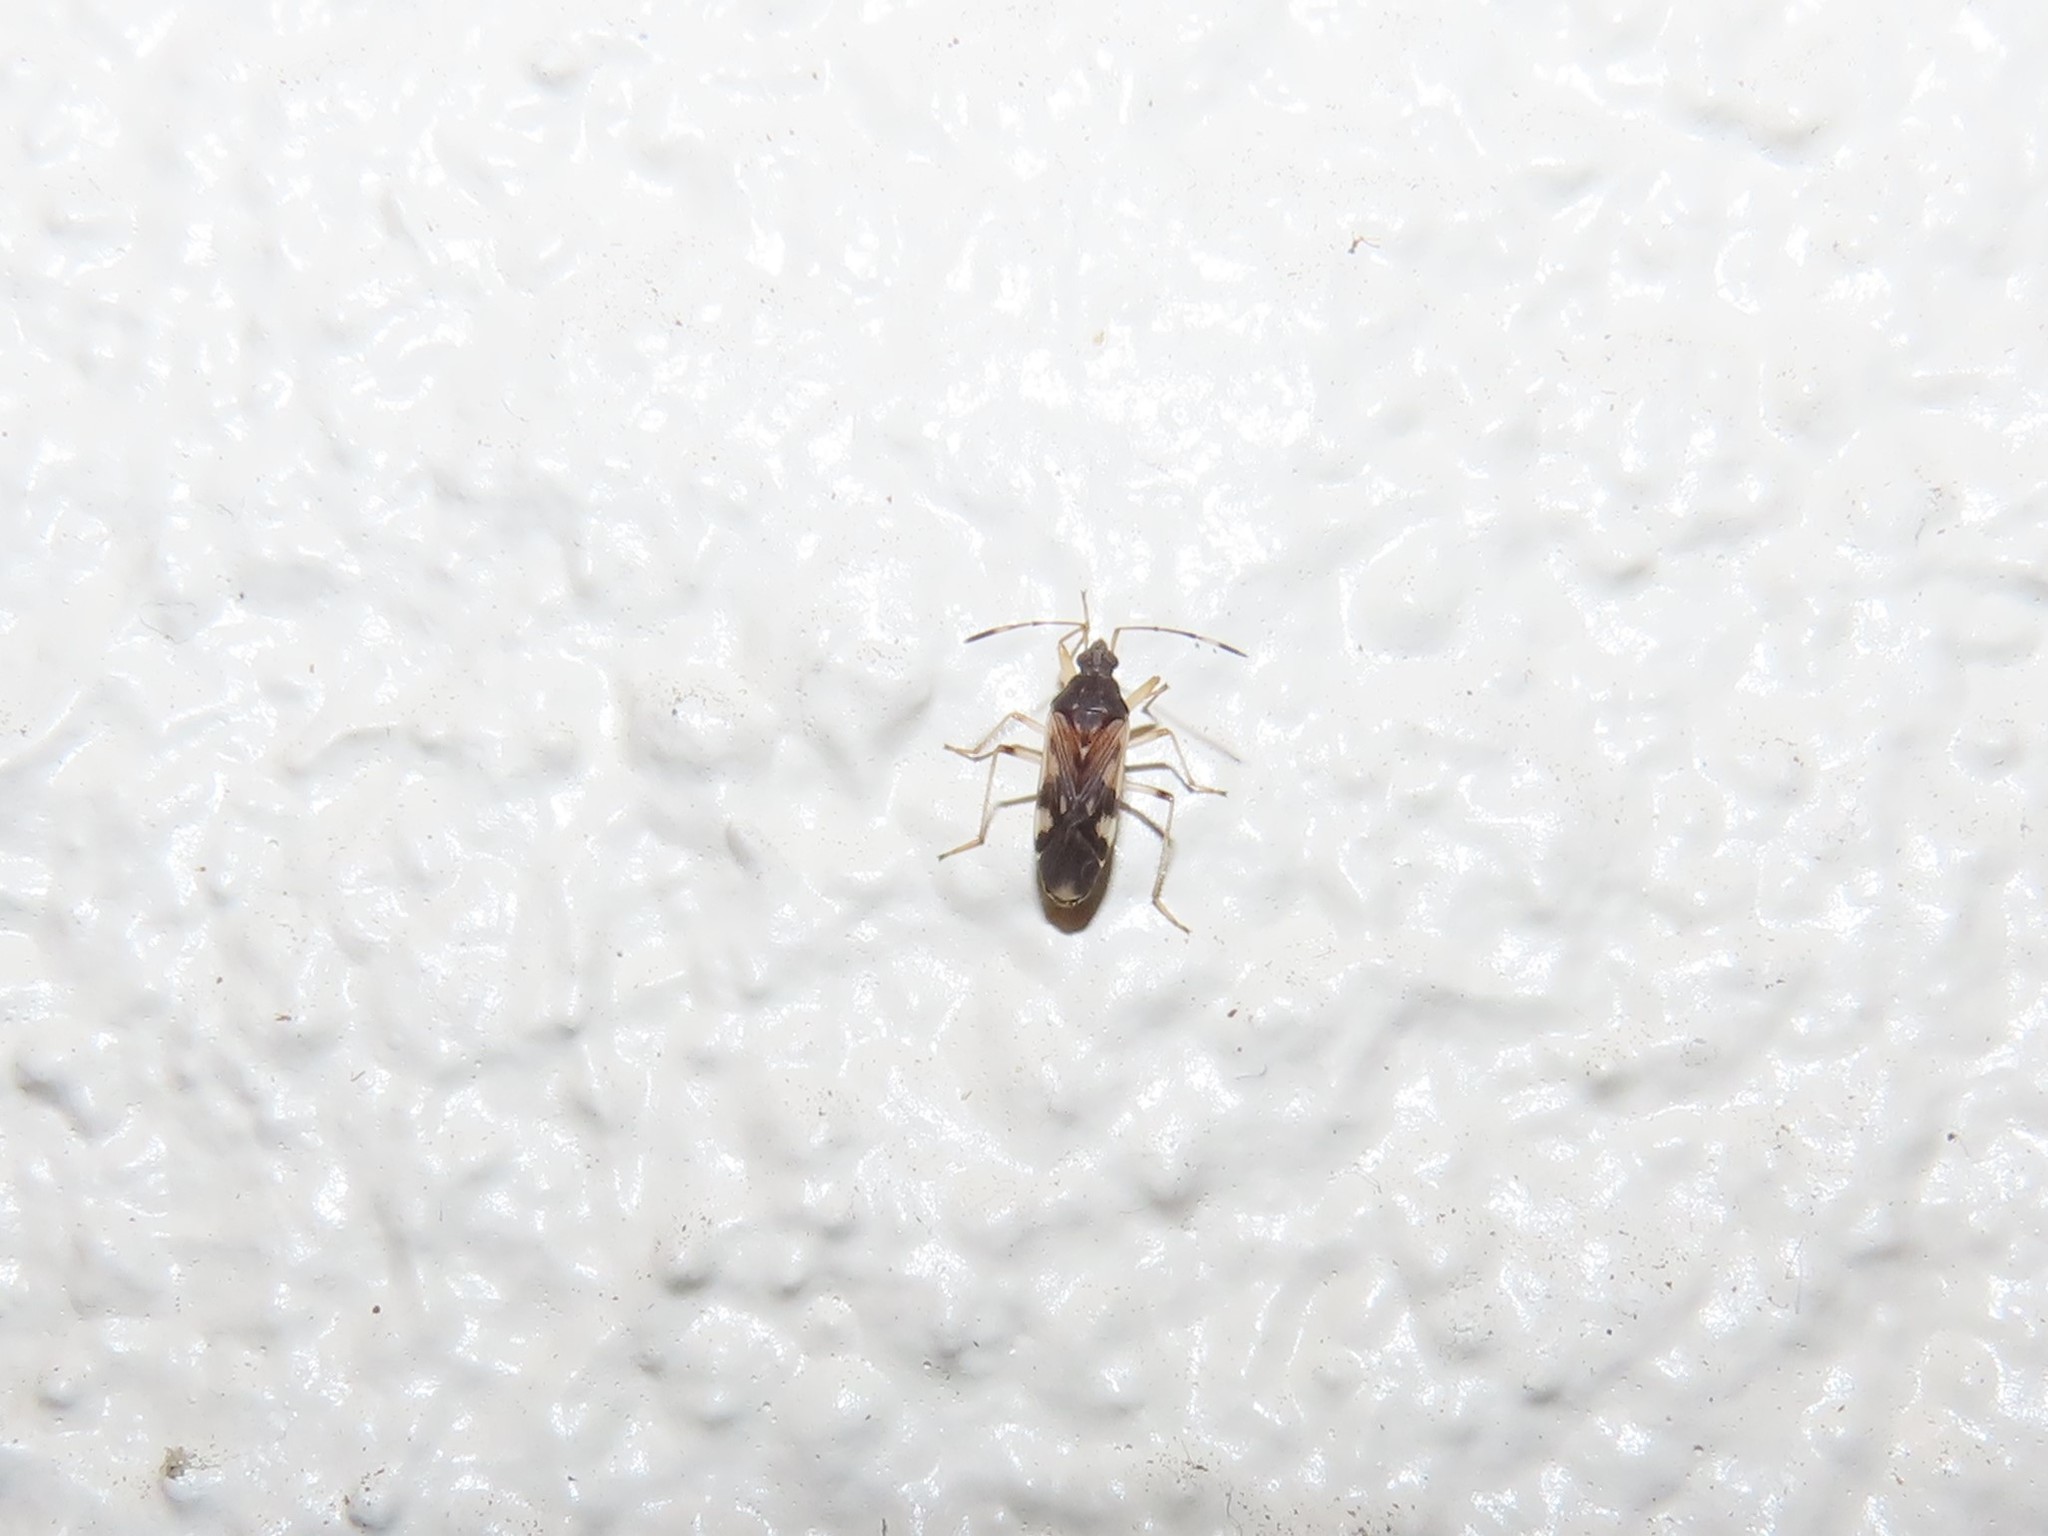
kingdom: Animalia
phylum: Arthropoda
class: Insecta
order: Hemiptera
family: Rhyparochromidae
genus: Ozophora
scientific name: Ozophora burmeisteri
